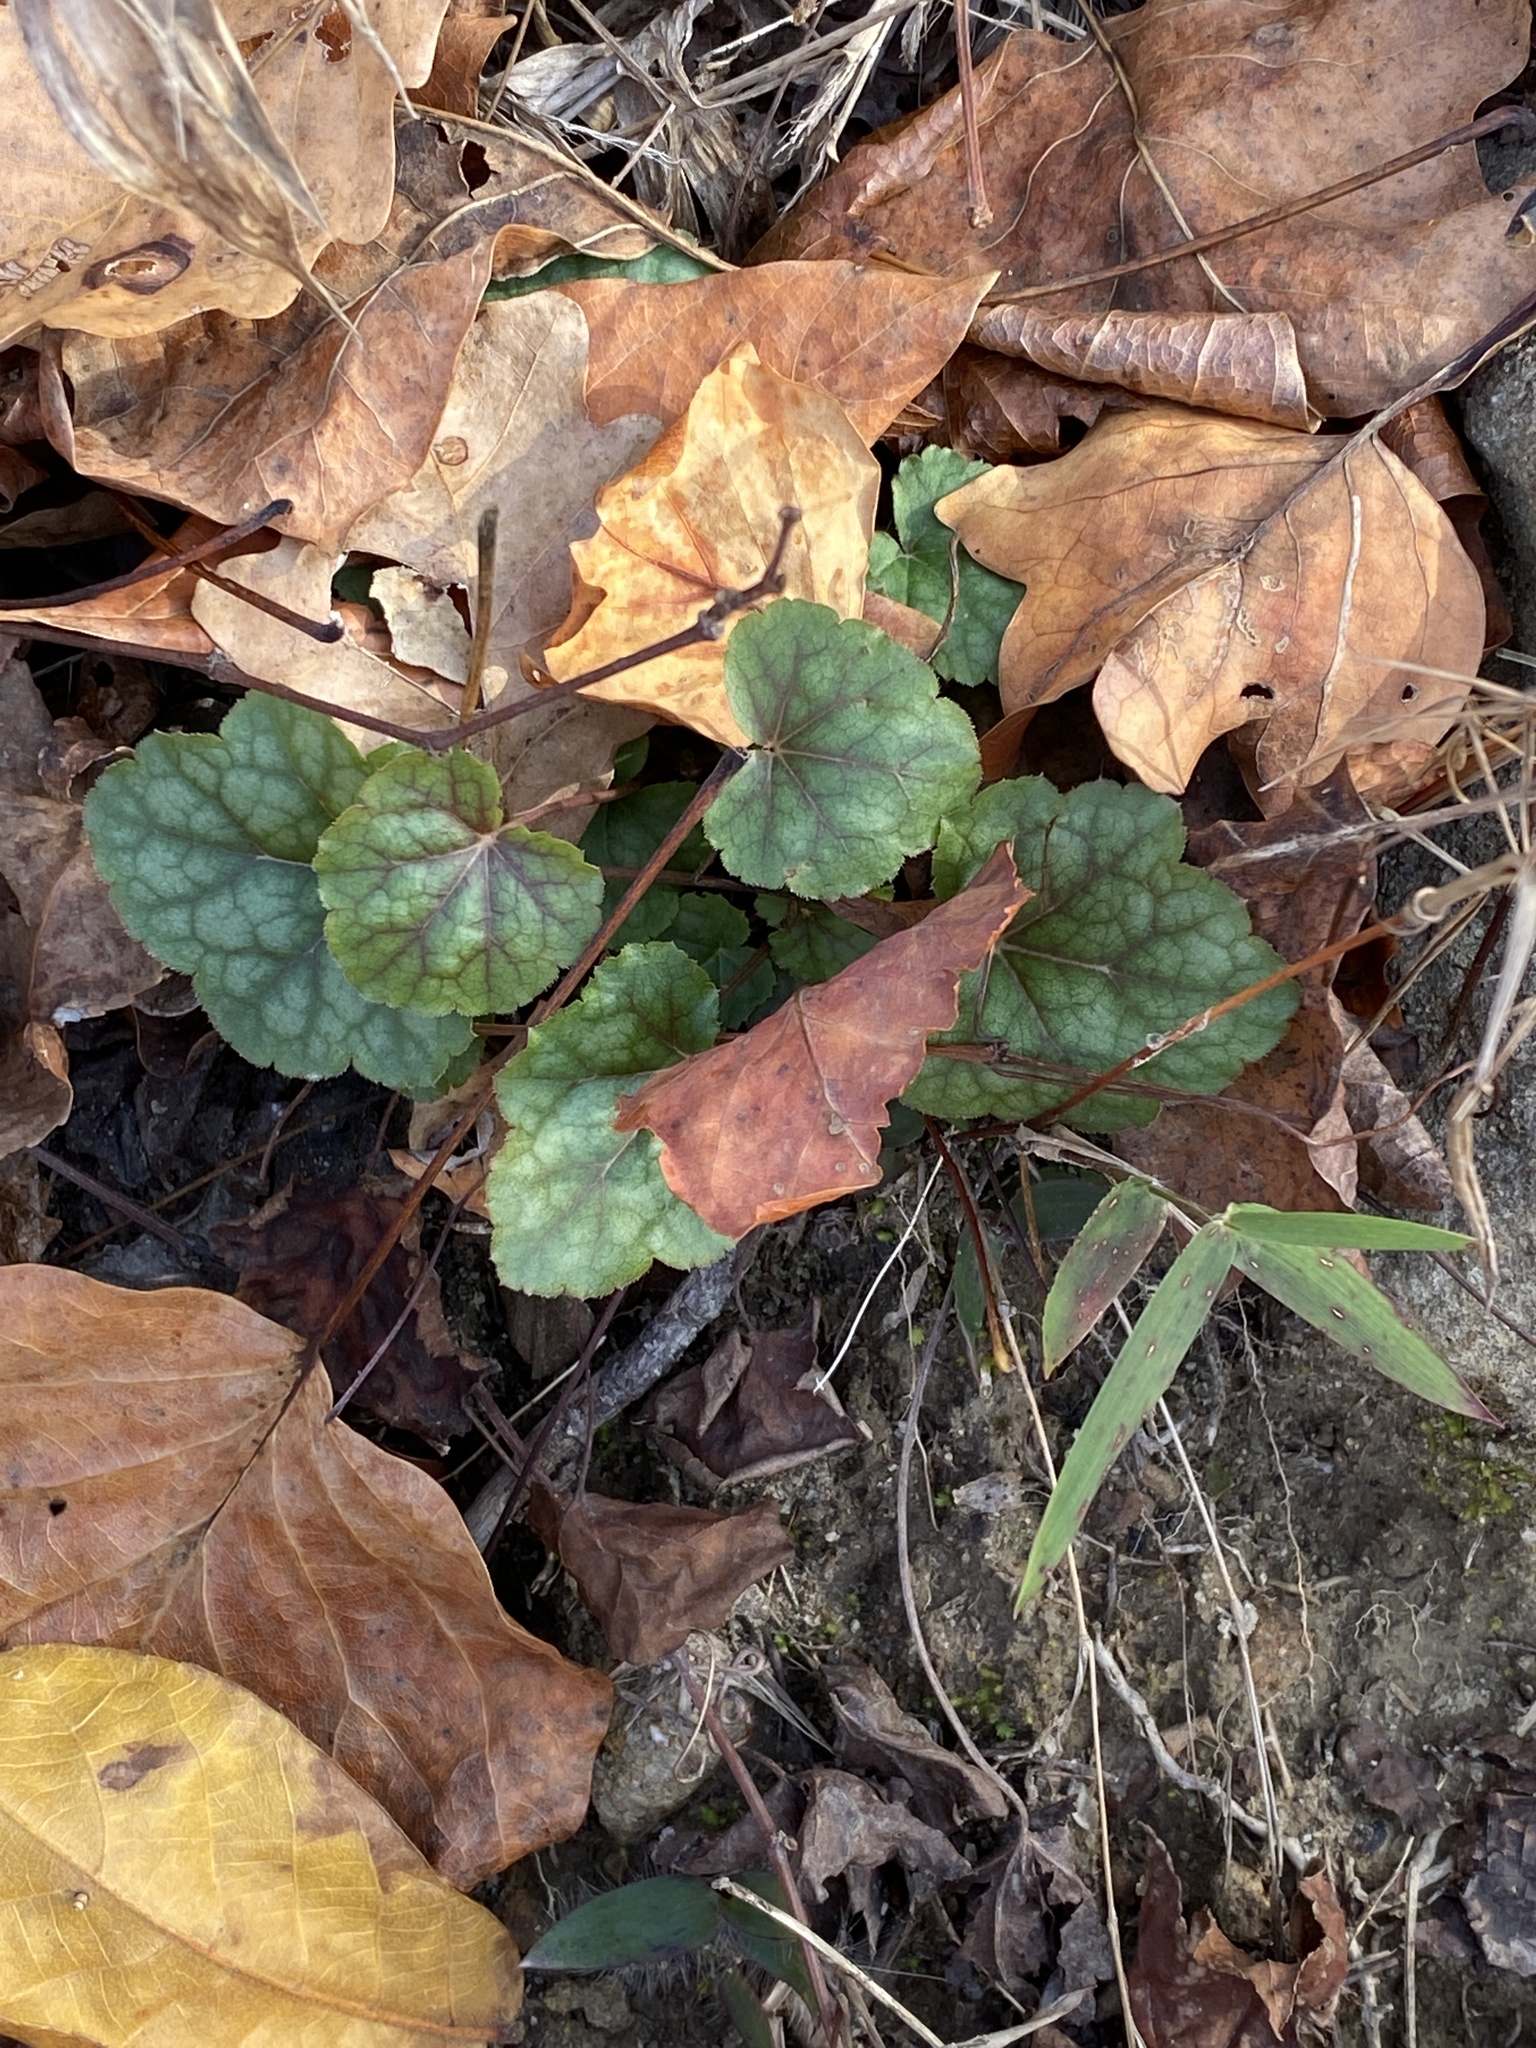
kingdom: Plantae
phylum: Tracheophyta
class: Magnoliopsida
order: Saxifragales
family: Saxifragaceae
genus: Heuchera
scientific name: Heuchera americana
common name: Alumroot
